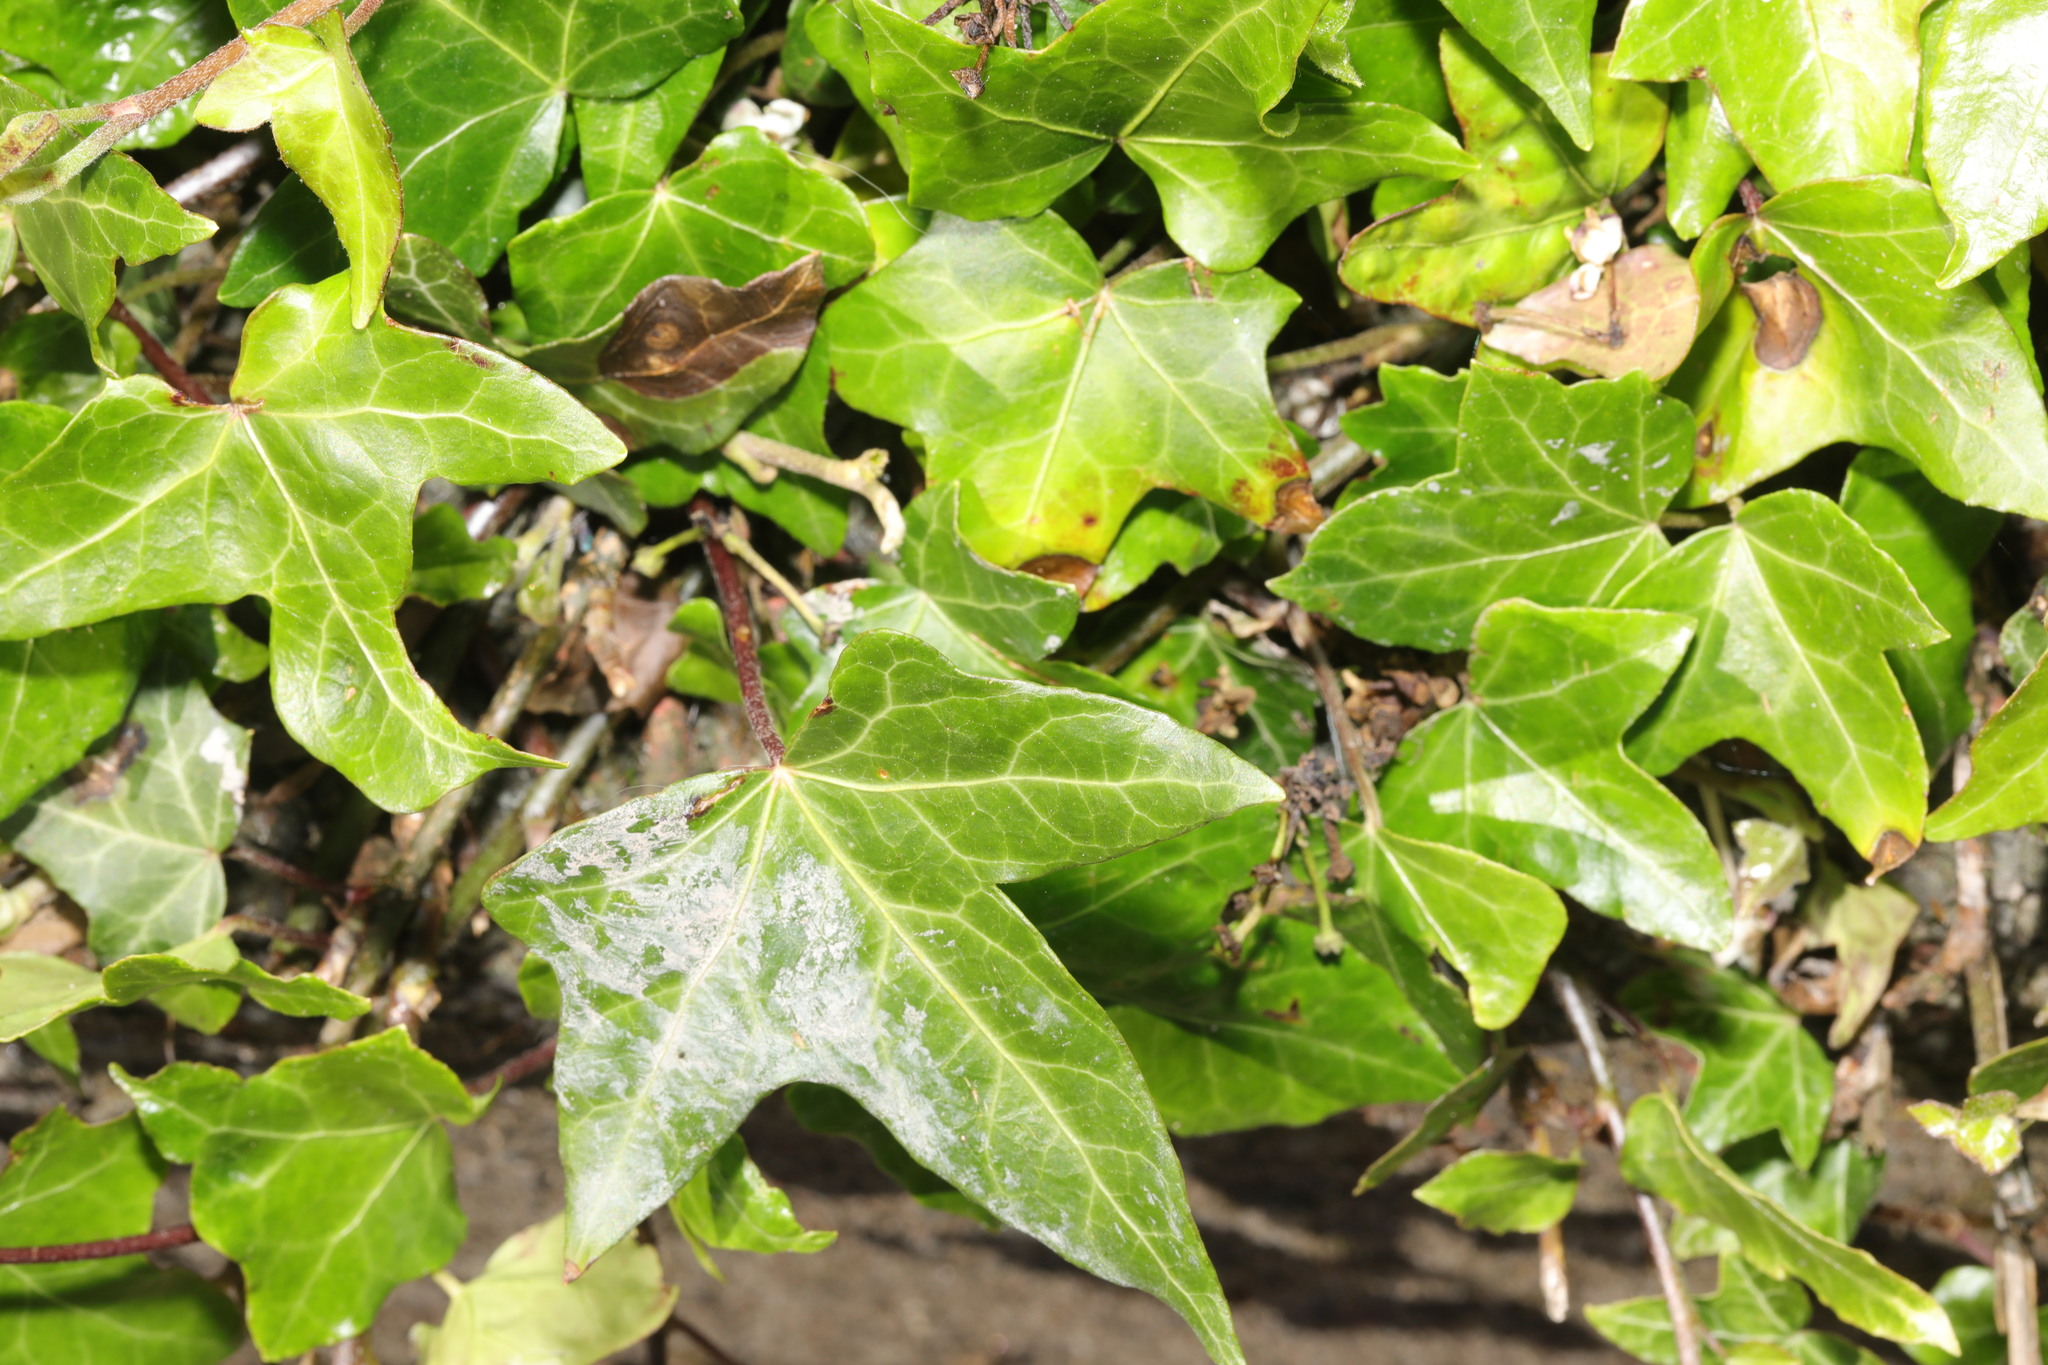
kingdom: Plantae
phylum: Tracheophyta
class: Magnoliopsida
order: Apiales
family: Araliaceae
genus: Hedera
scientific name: Hedera helix
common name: Ivy
